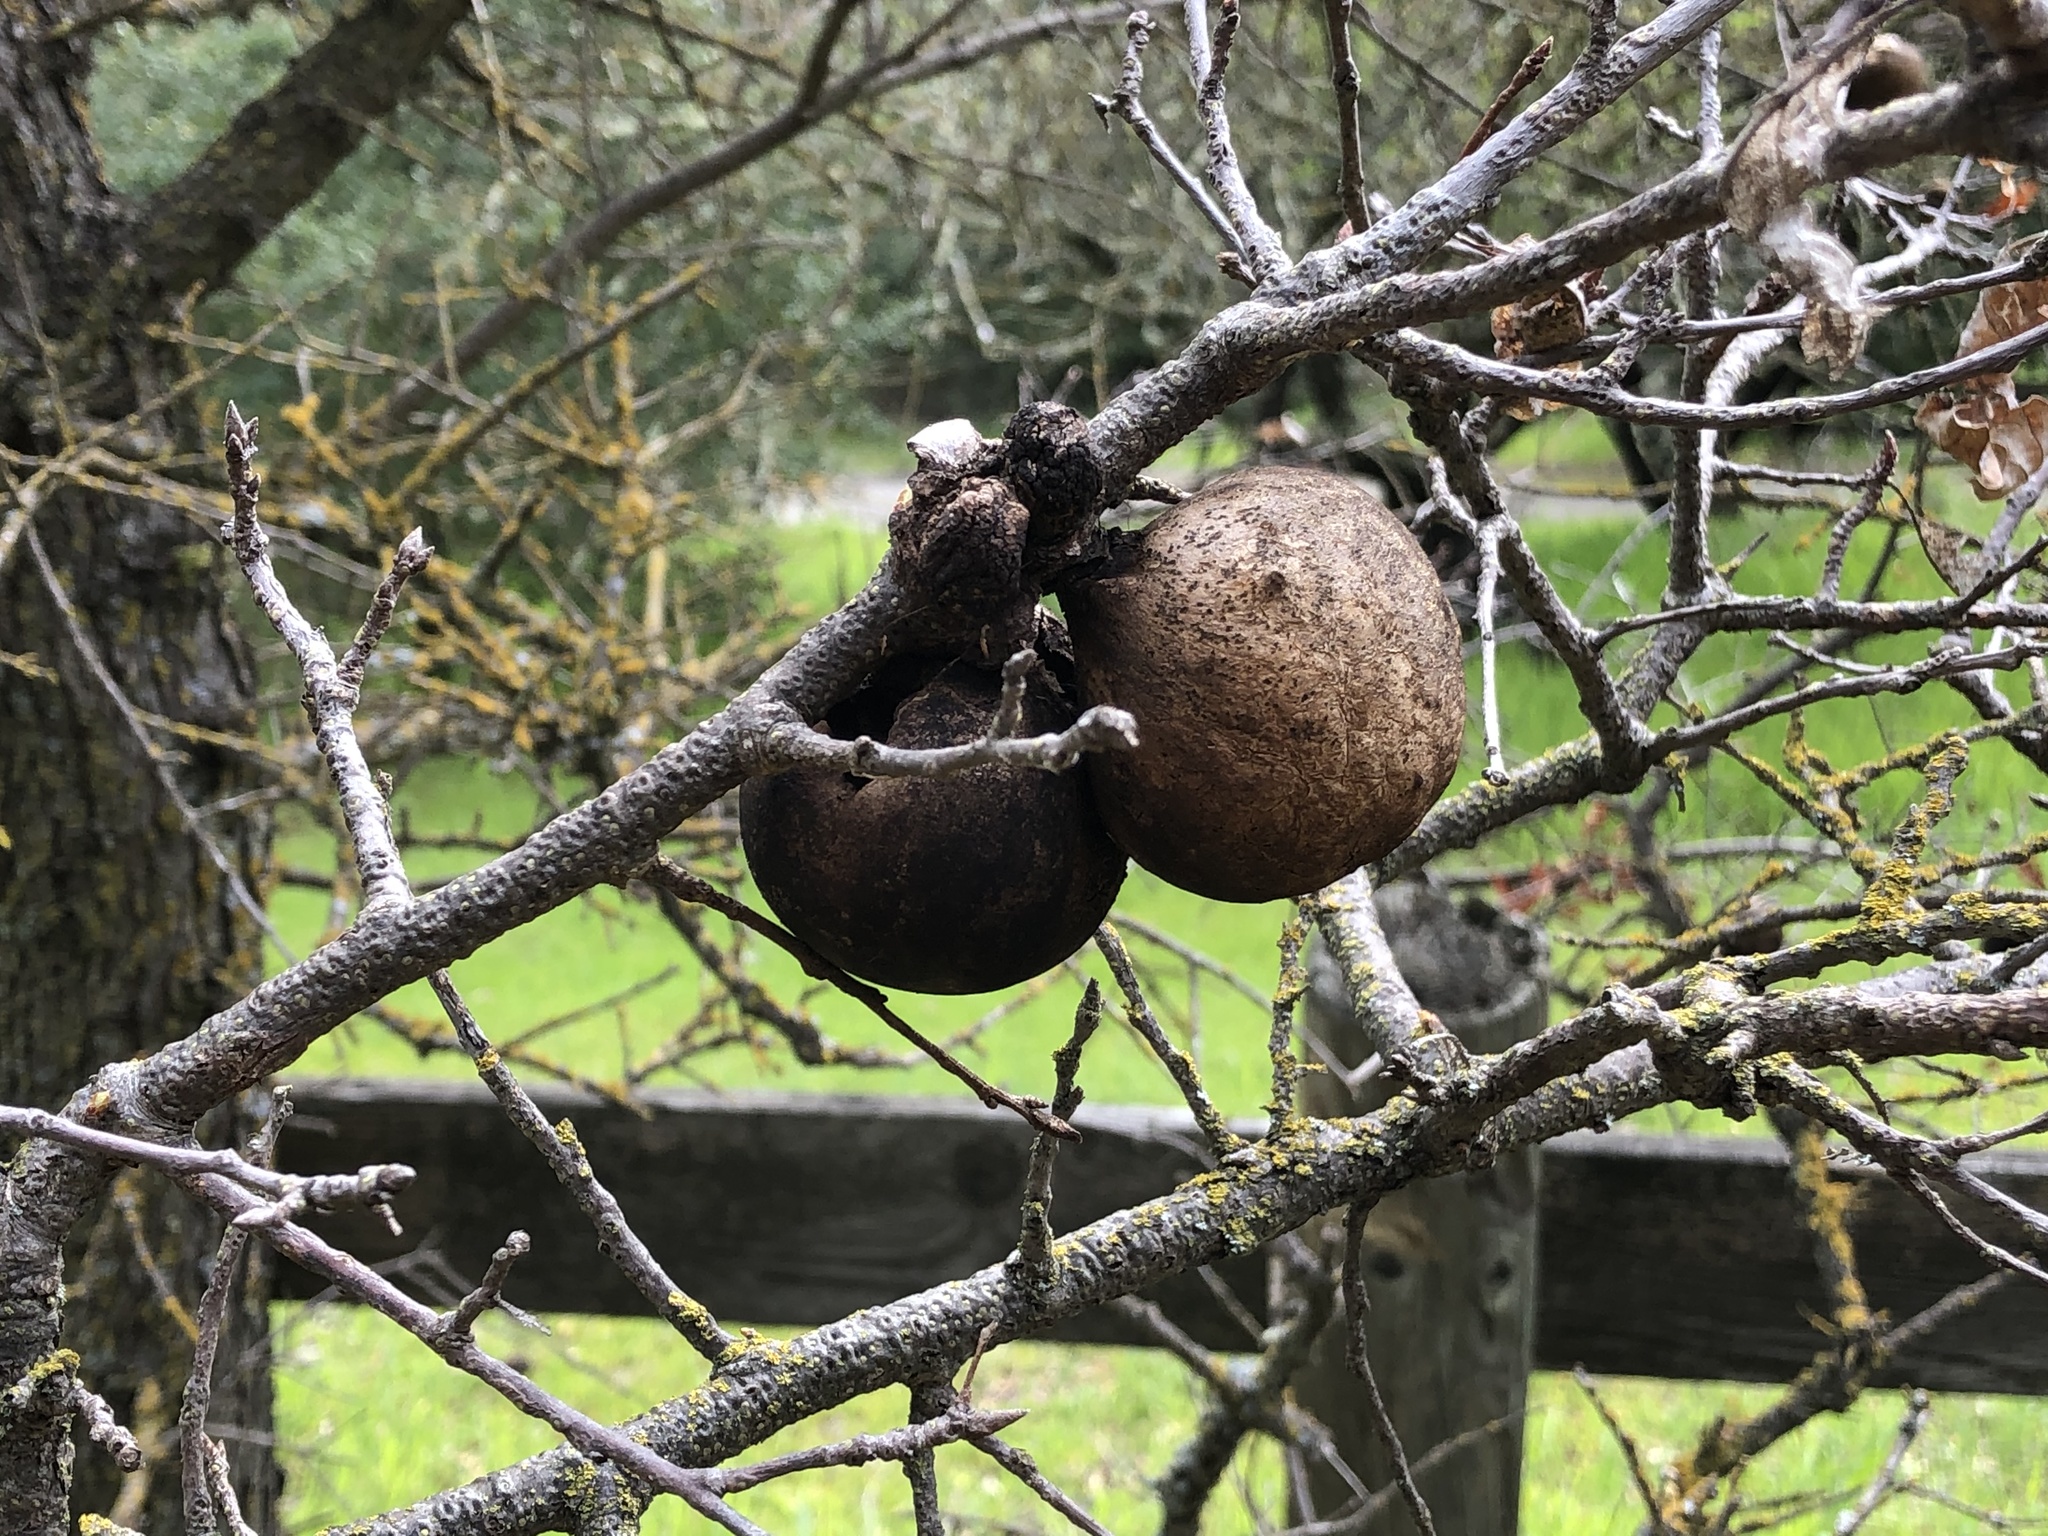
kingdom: Animalia
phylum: Arthropoda
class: Insecta
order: Hymenoptera
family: Cynipidae
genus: Andricus
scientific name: Andricus quercuscalifornicus
